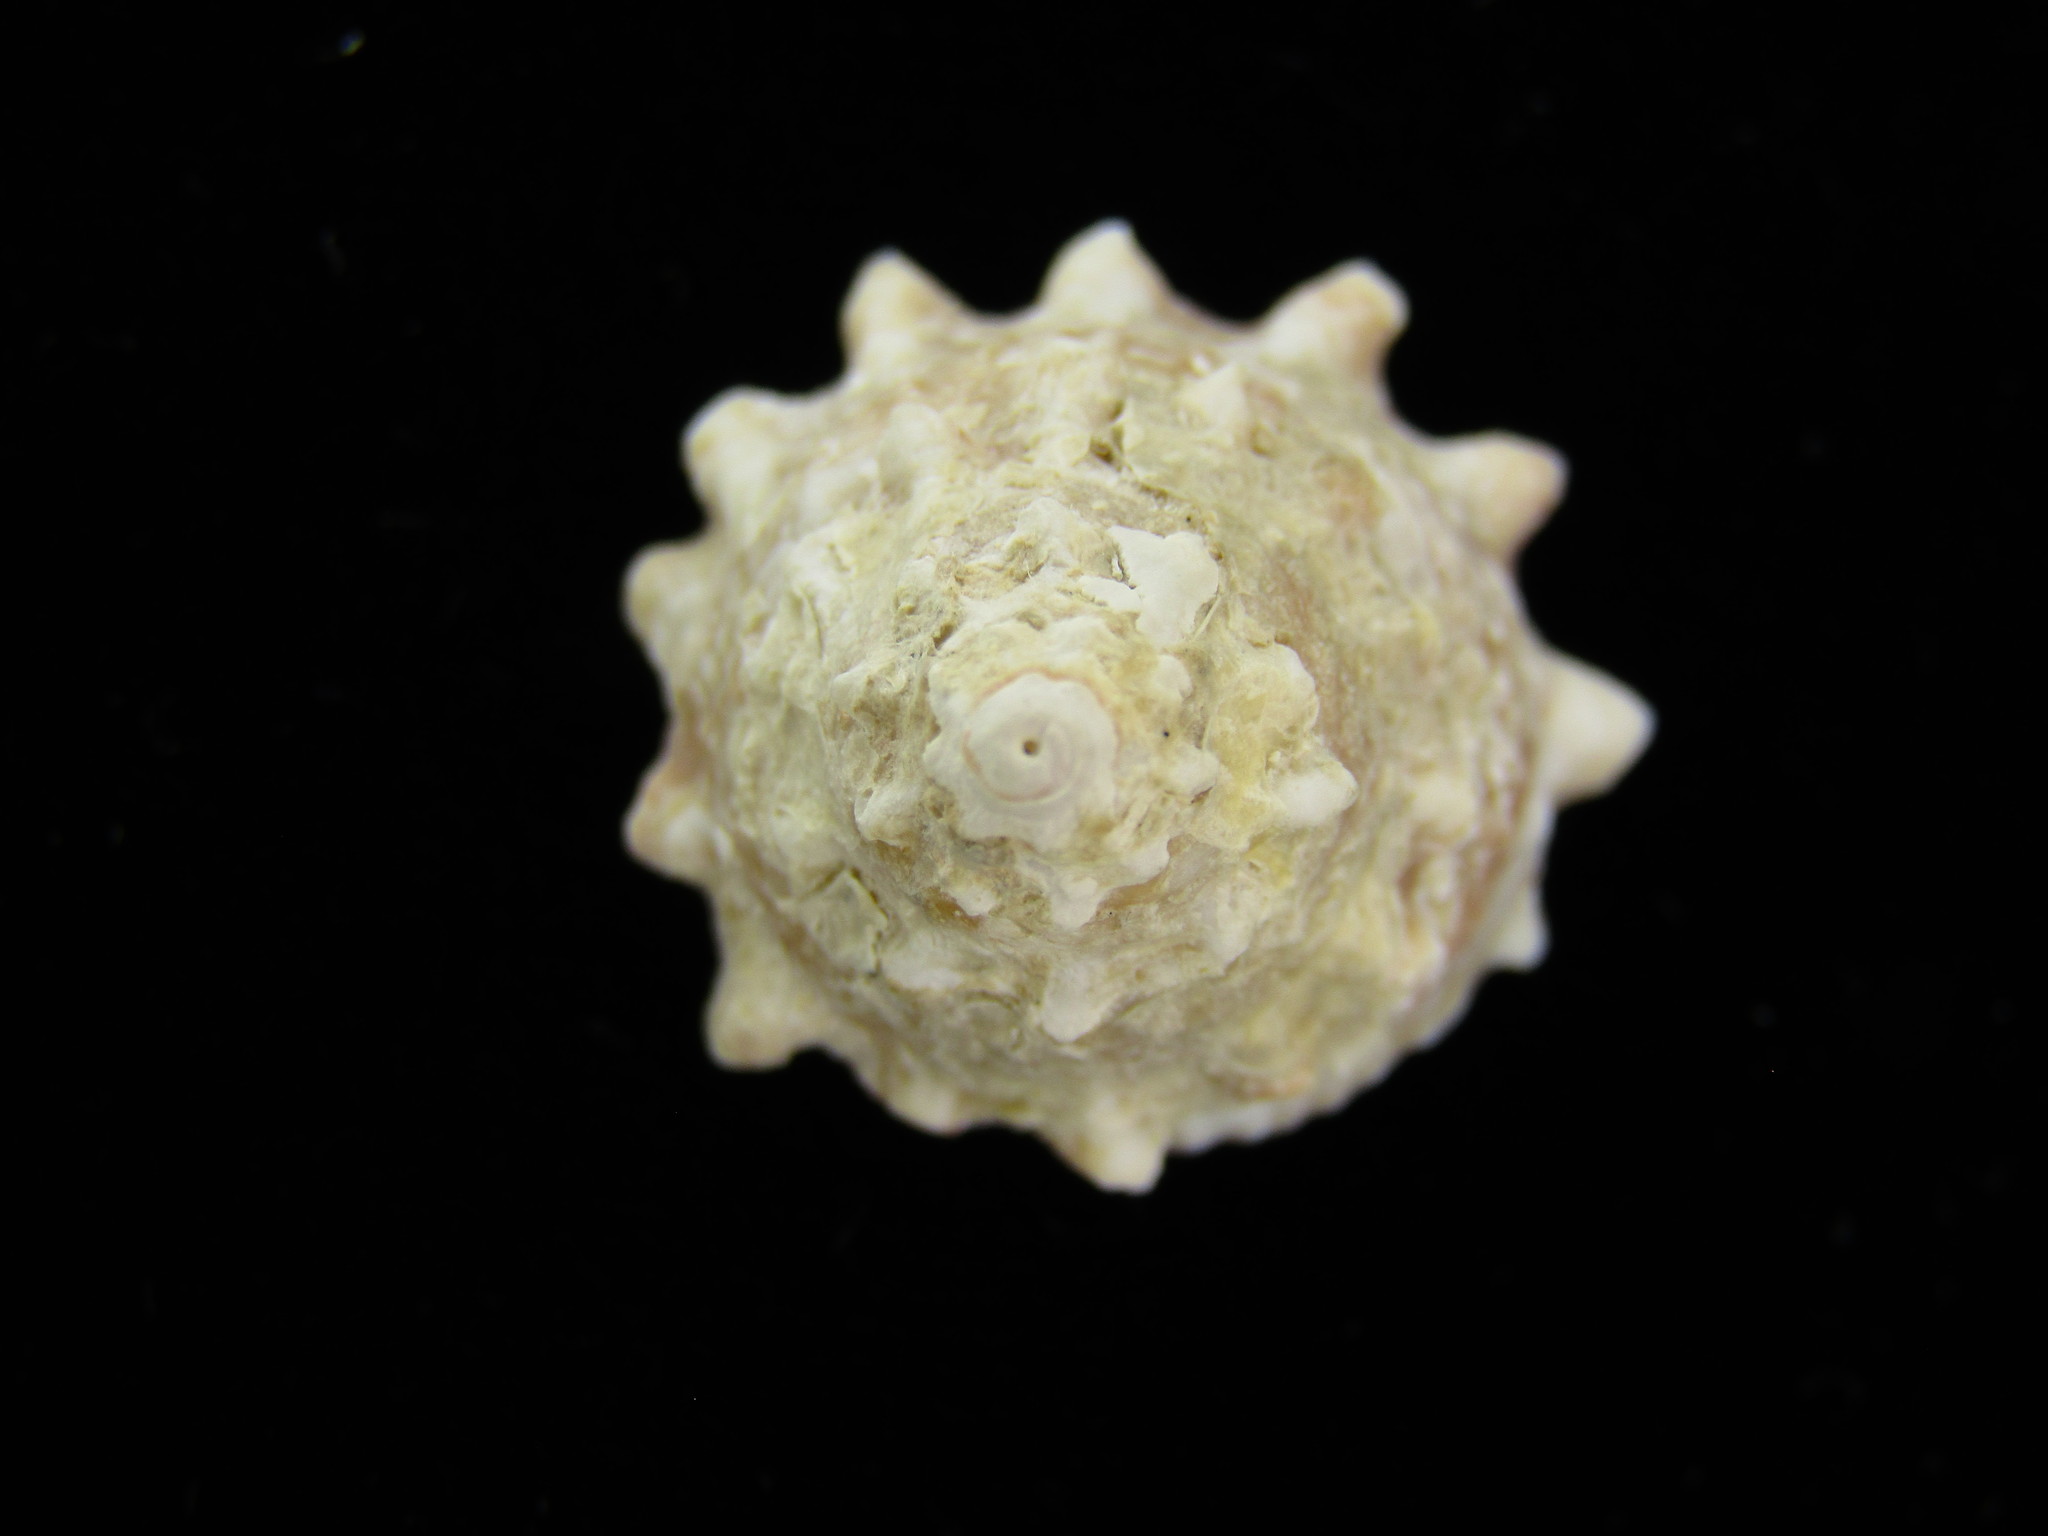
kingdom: Animalia
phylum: Mollusca
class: Gastropoda
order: Trochida
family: Turbinidae
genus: Astralium
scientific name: Astralium haematragum
